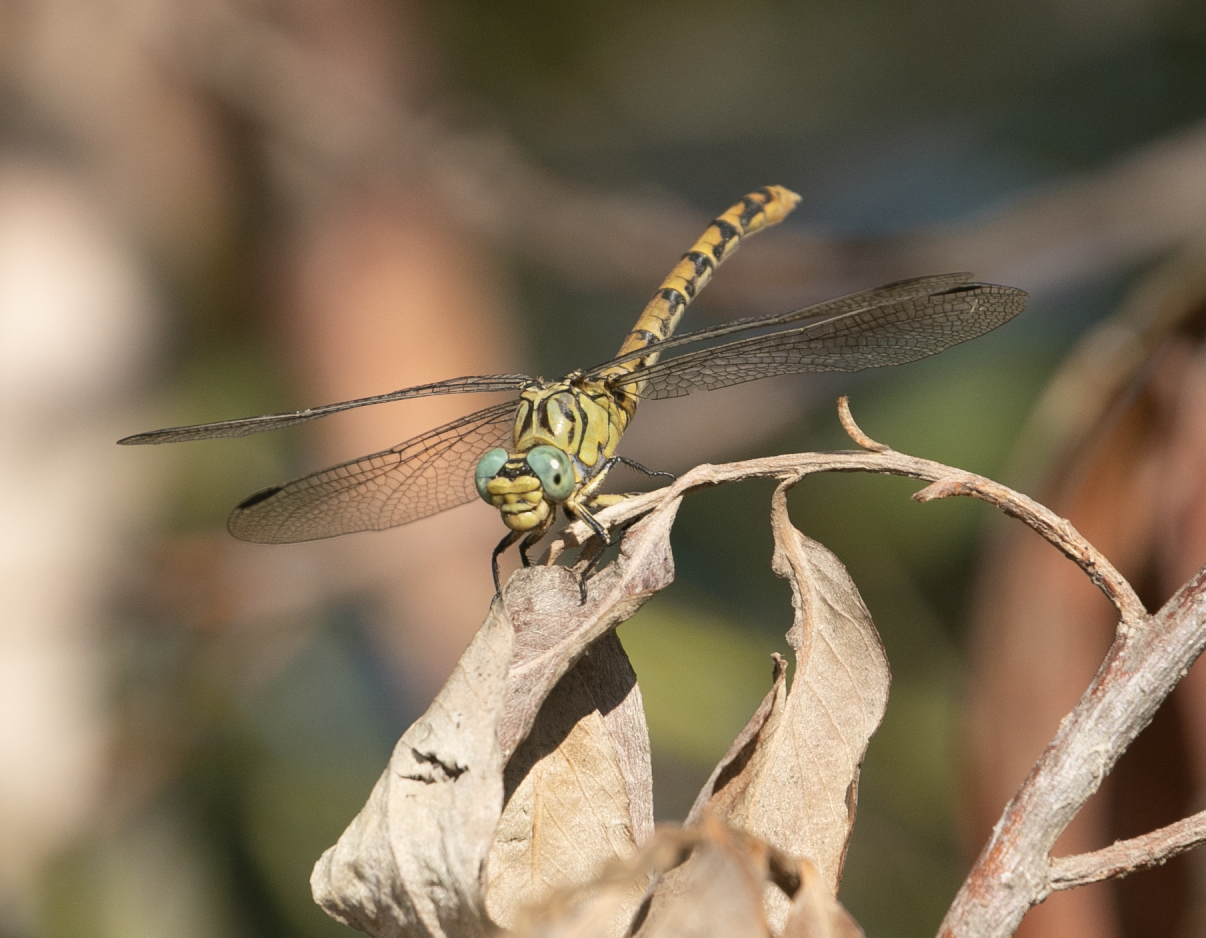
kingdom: Animalia
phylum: Arthropoda
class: Insecta
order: Odonata
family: Gomphidae
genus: Onychogomphus
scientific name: Onychogomphus forcipatus
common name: Small pincertail
